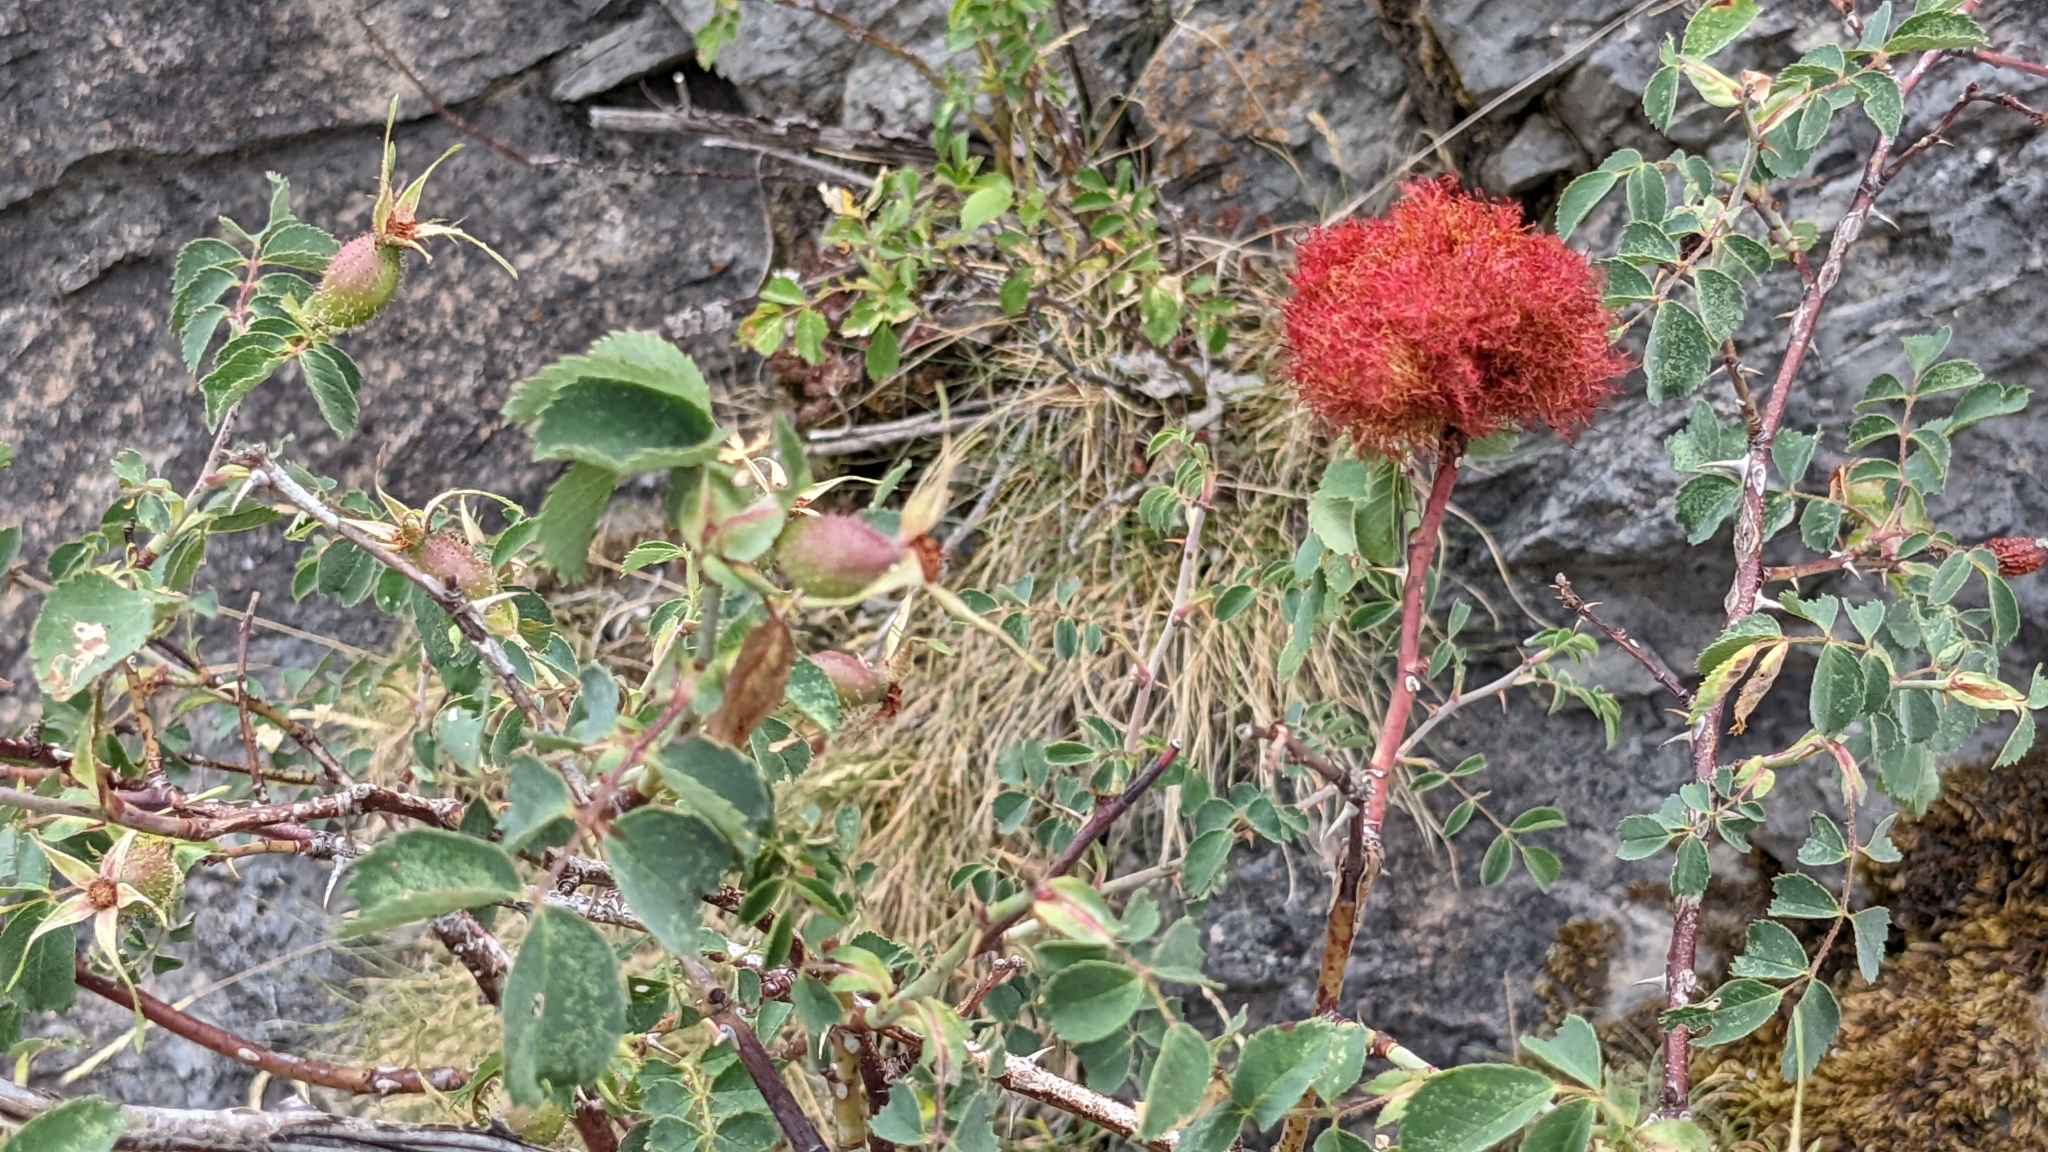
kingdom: Animalia
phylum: Arthropoda
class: Insecta
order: Hymenoptera
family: Cynipidae
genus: Diplolepis
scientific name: Diplolepis rosae
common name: Bedeguar gall
